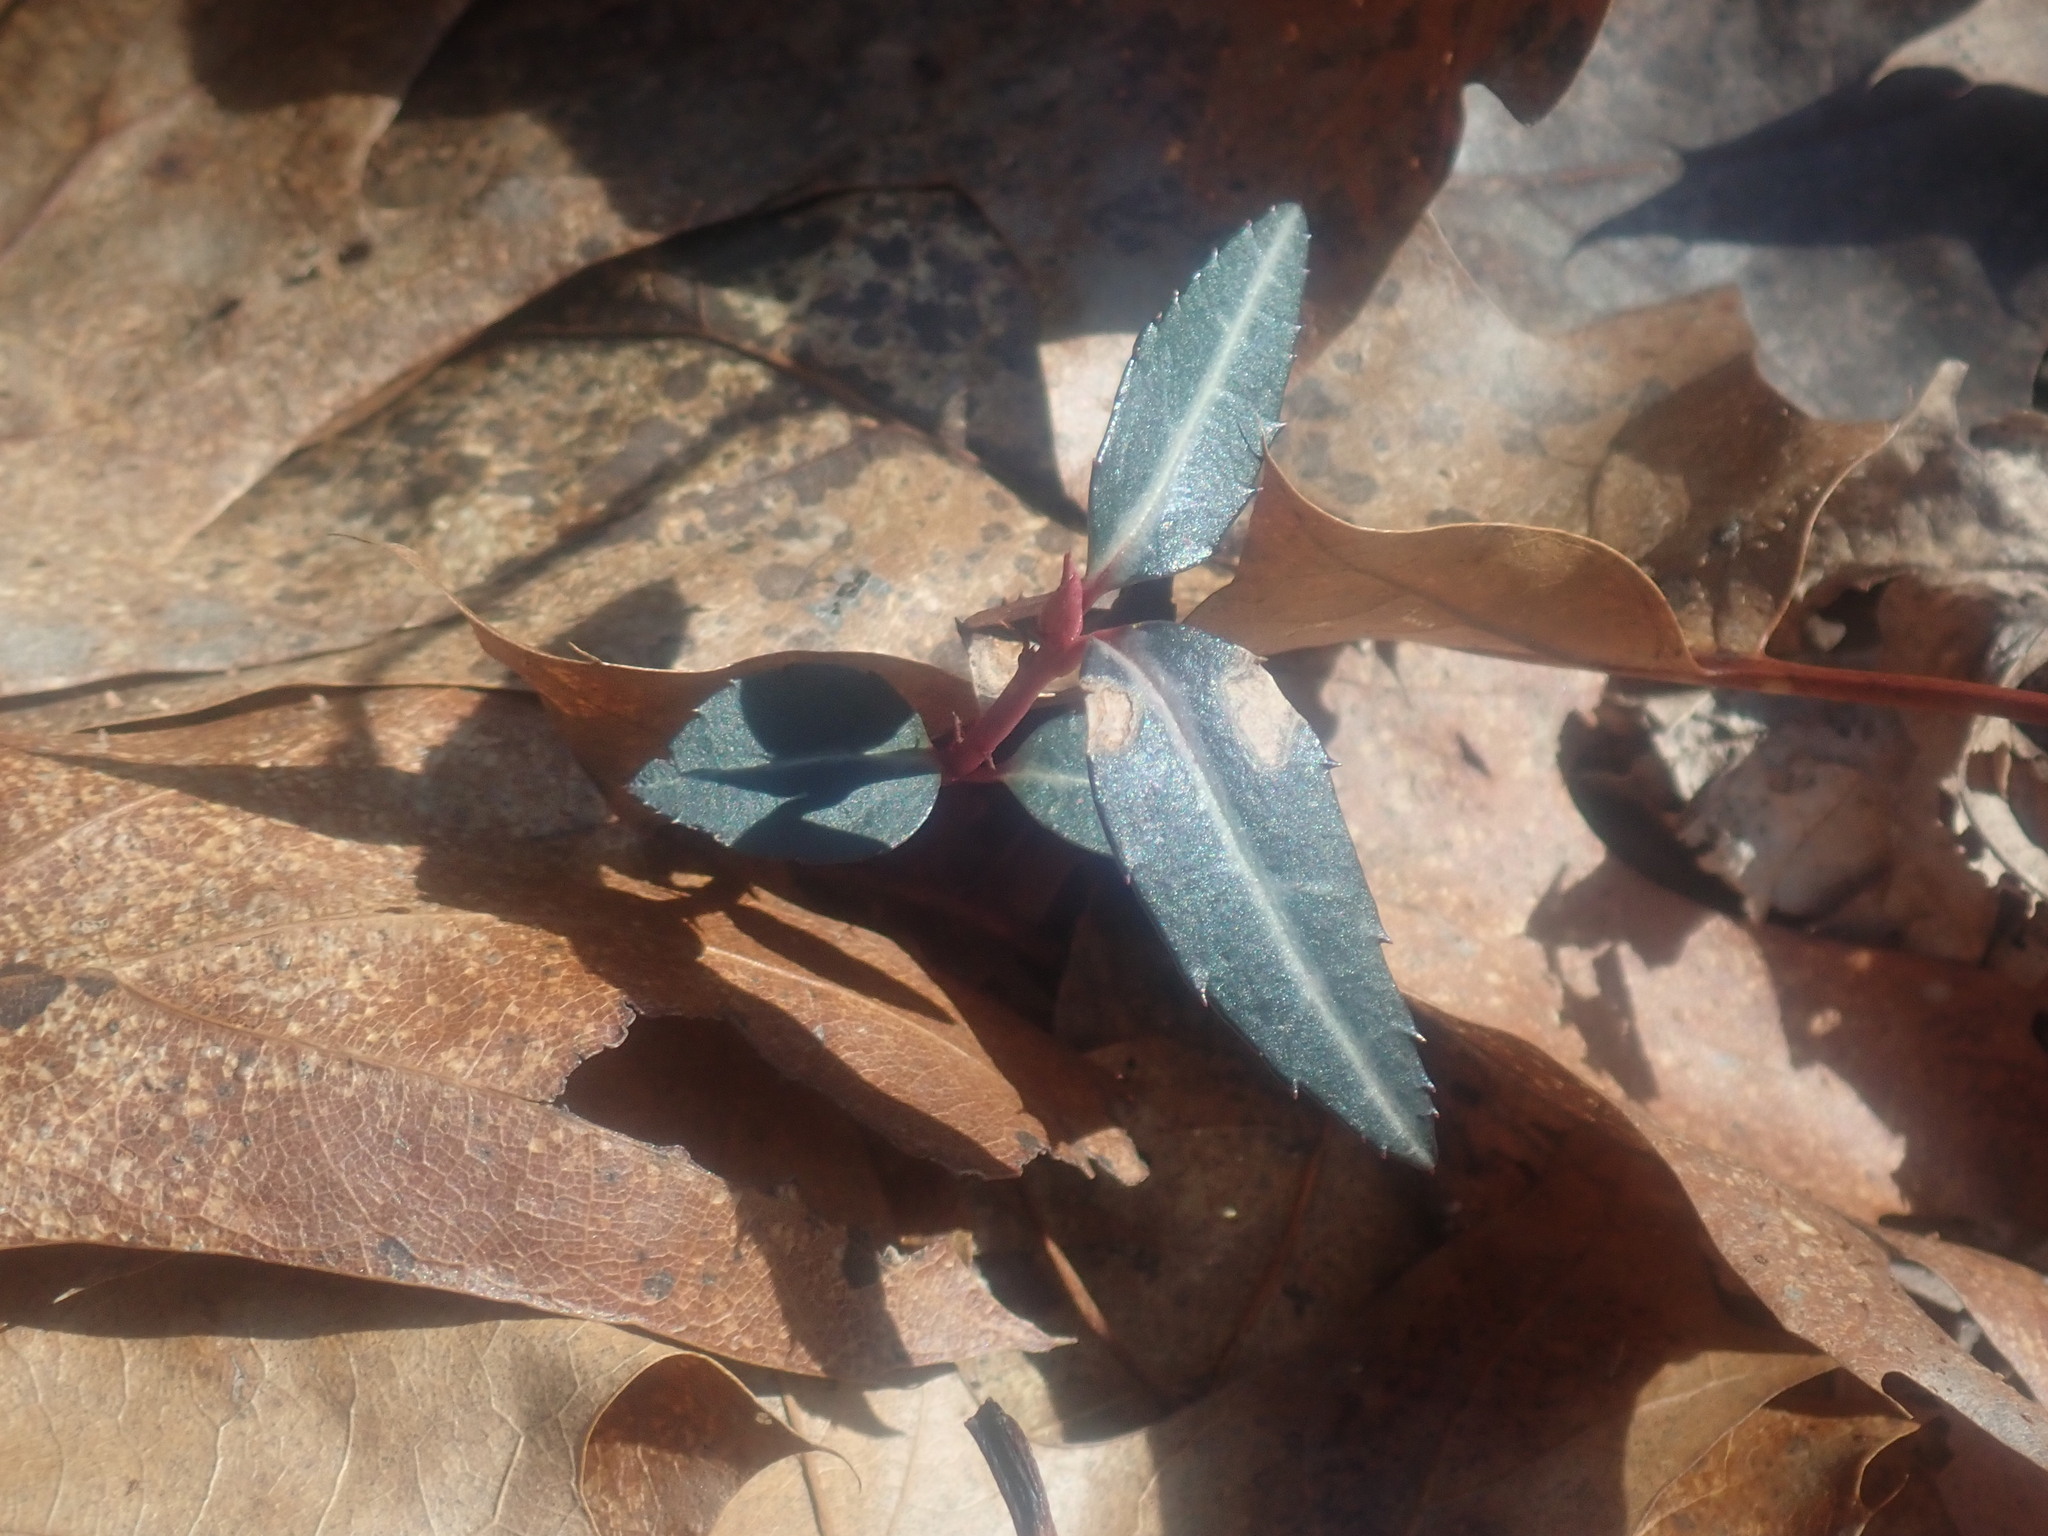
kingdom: Plantae
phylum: Tracheophyta
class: Magnoliopsida
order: Ericales
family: Ericaceae
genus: Chimaphila
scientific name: Chimaphila maculata
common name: Spotted pipsissewa
